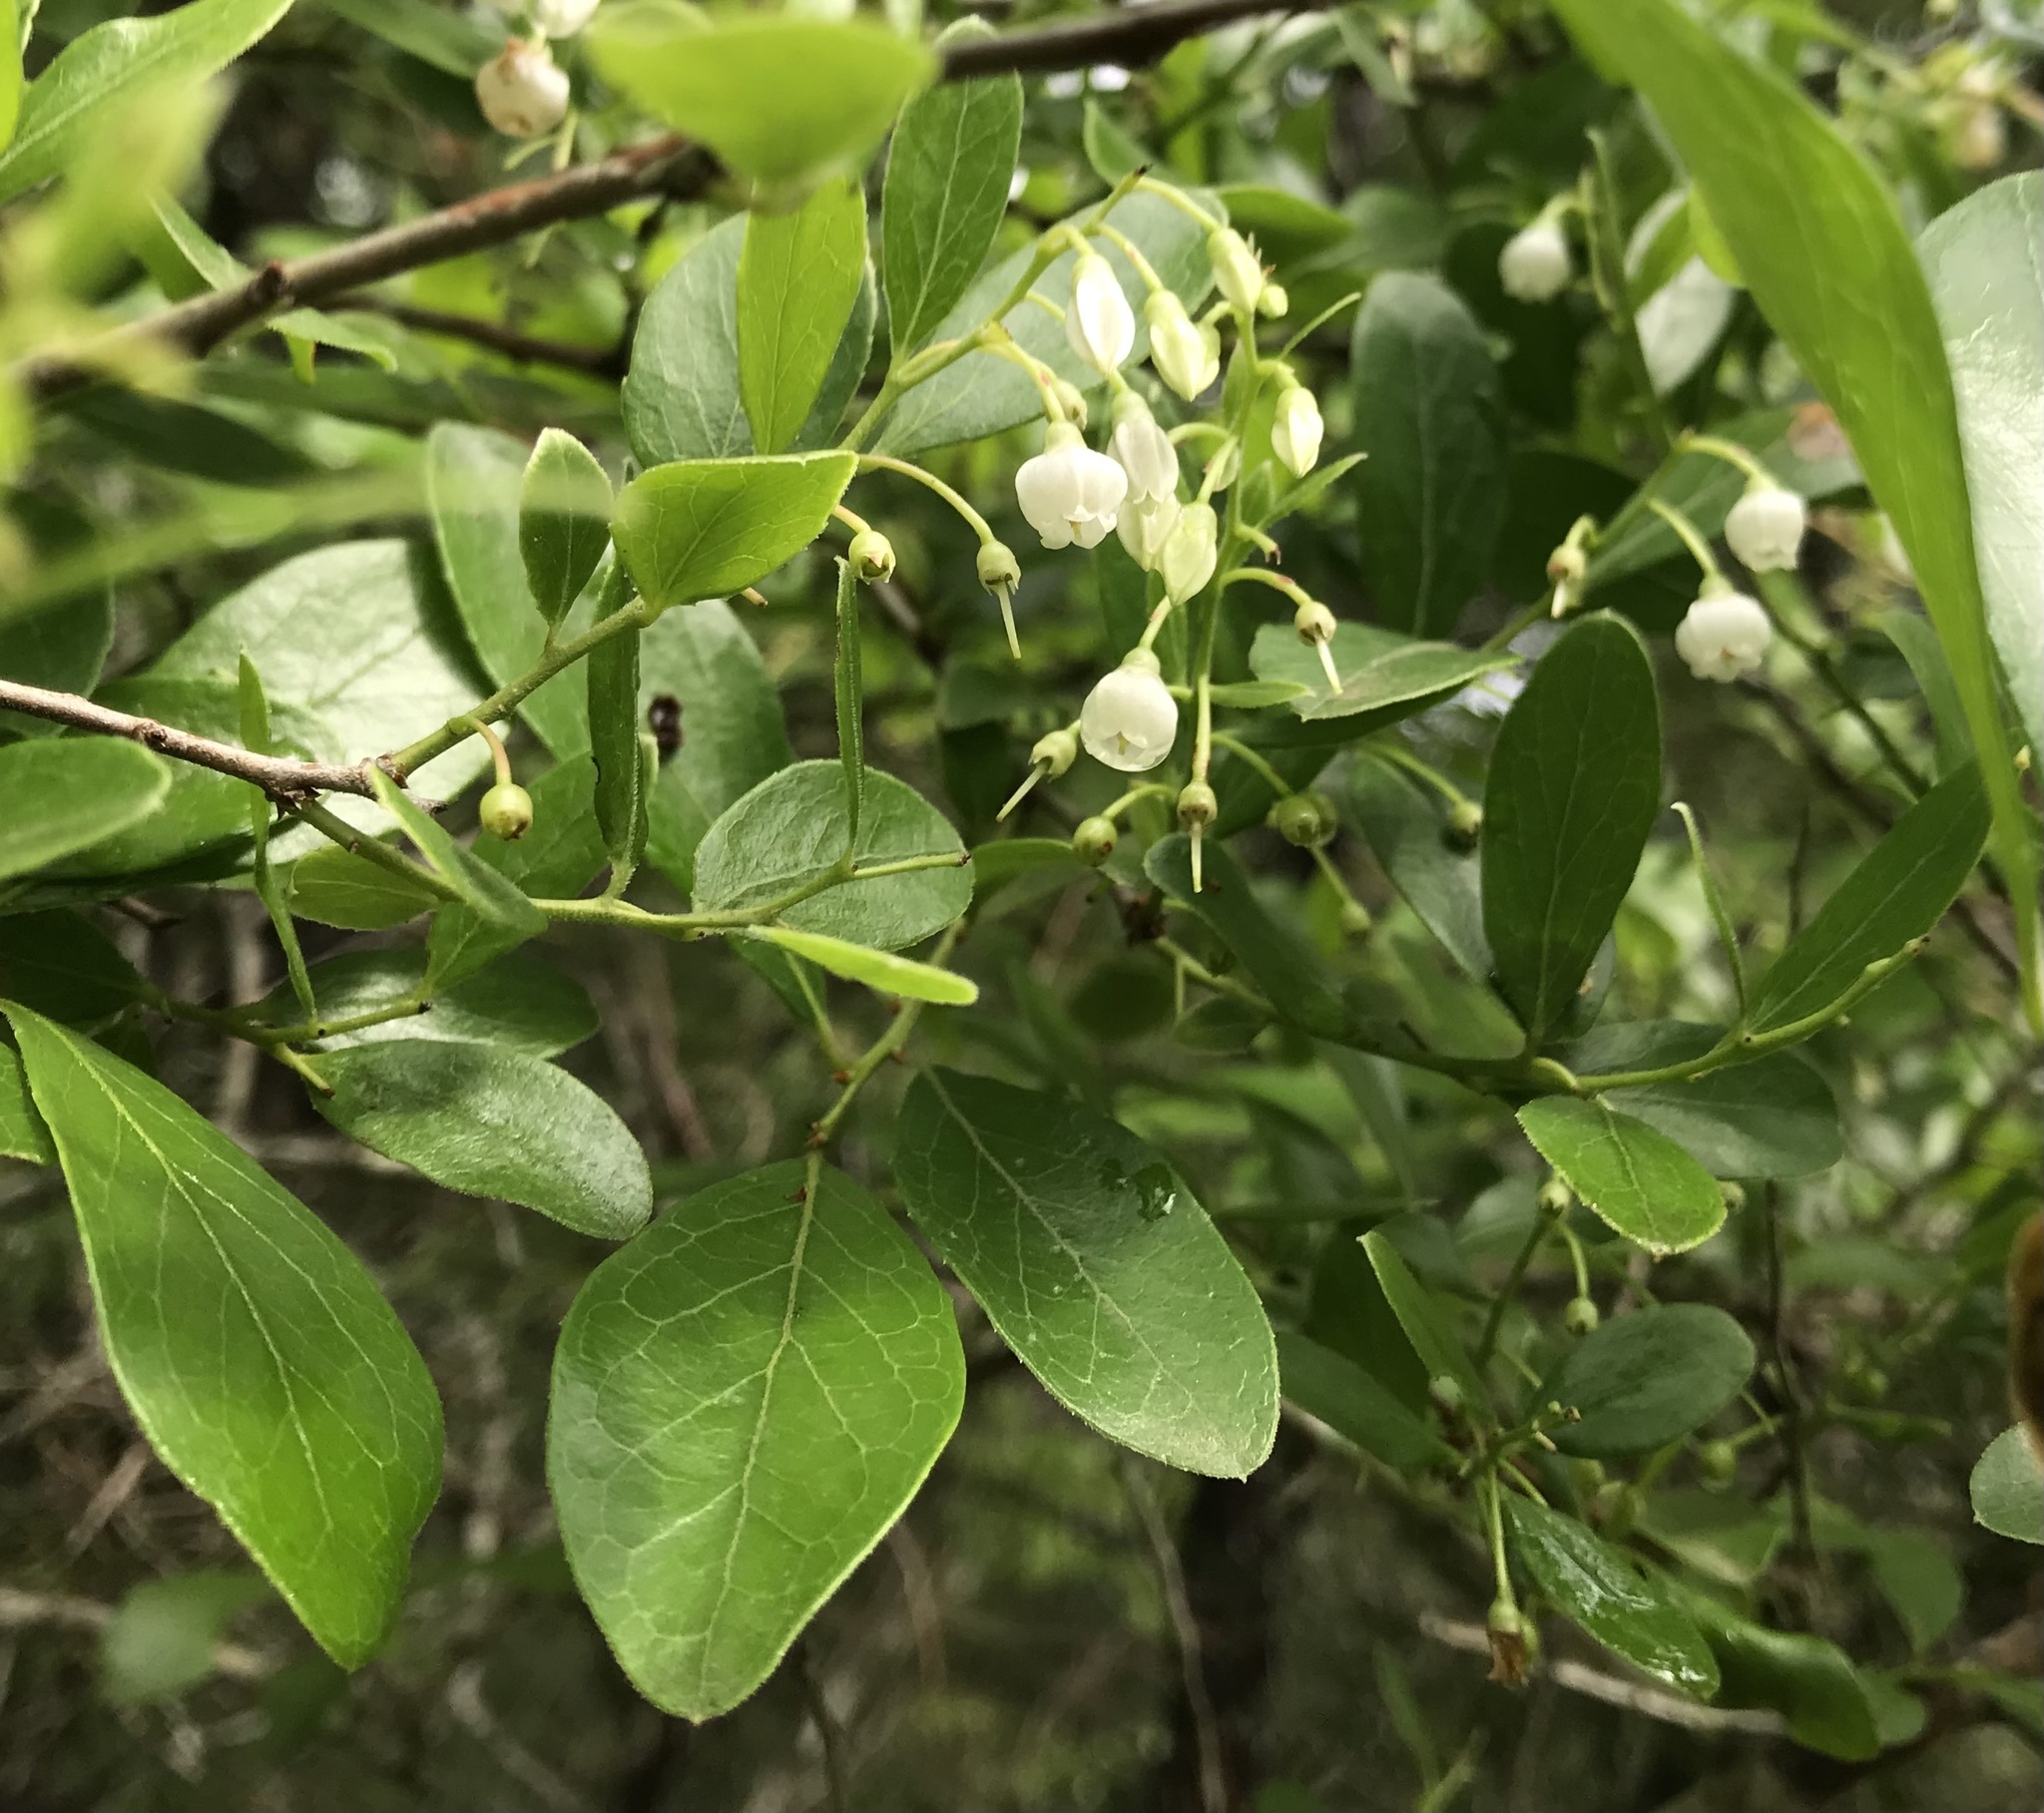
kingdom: Plantae
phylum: Tracheophyta
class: Magnoliopsida
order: Ericales
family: Ericaceae
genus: Vaccinium
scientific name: Vaccinium arboreum
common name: Farkleberry
